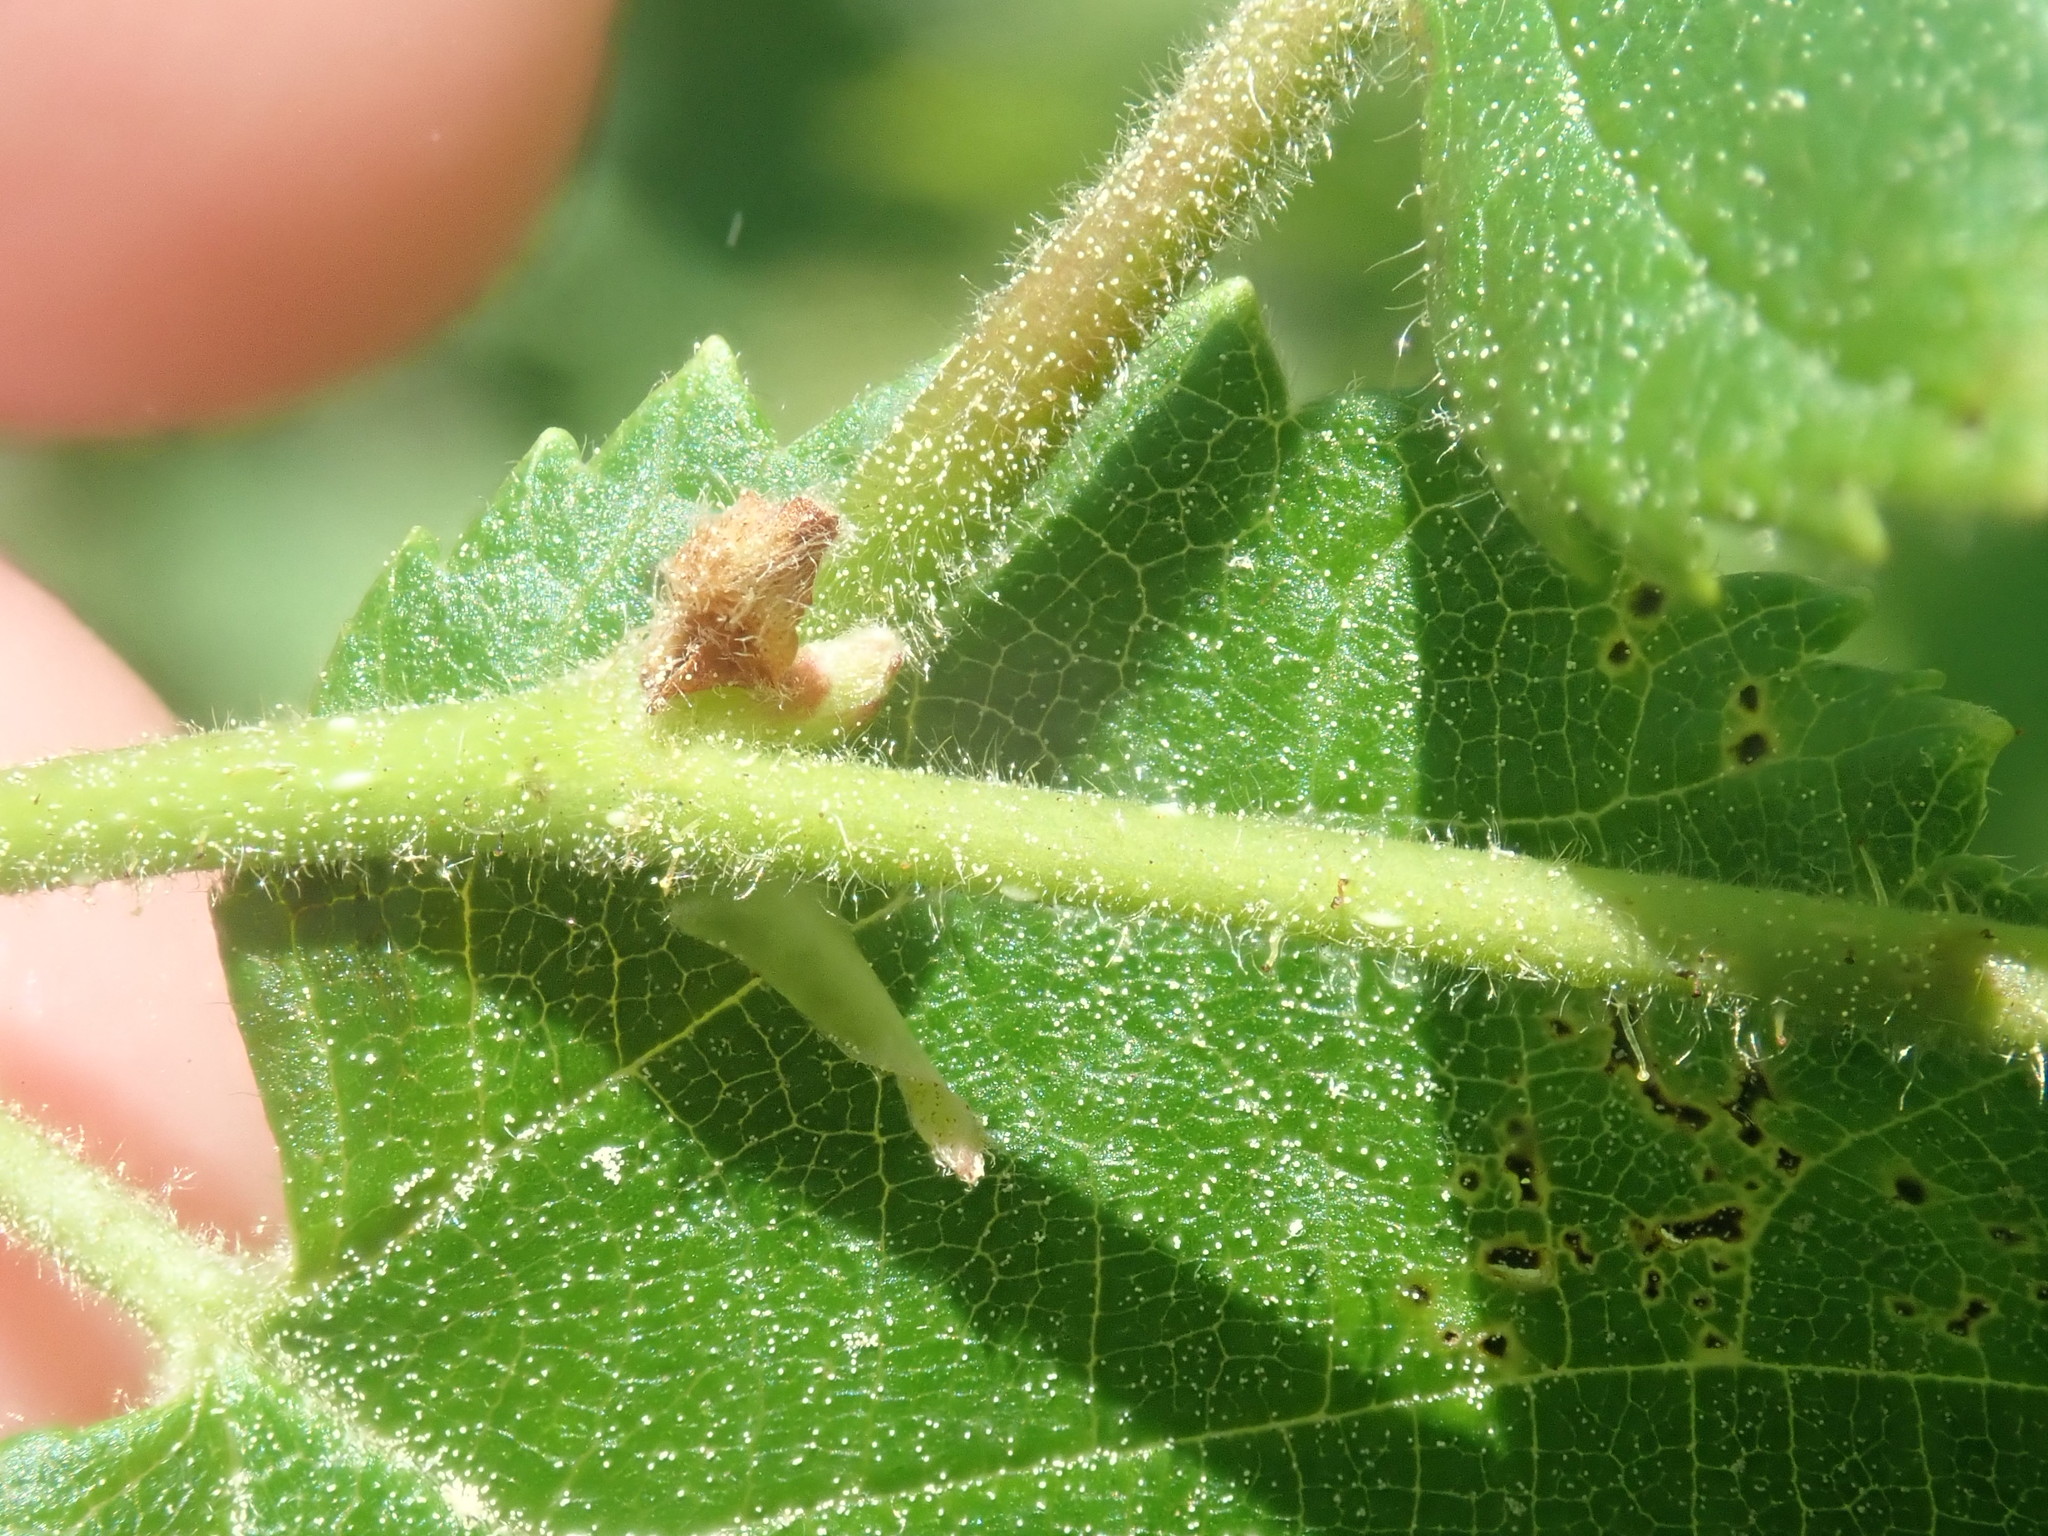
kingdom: Plantae
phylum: Tracheophyta
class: Magnoliopsida
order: Fagales
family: Betulaceae
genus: Corylus
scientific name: Corylus americana
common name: American hazel
